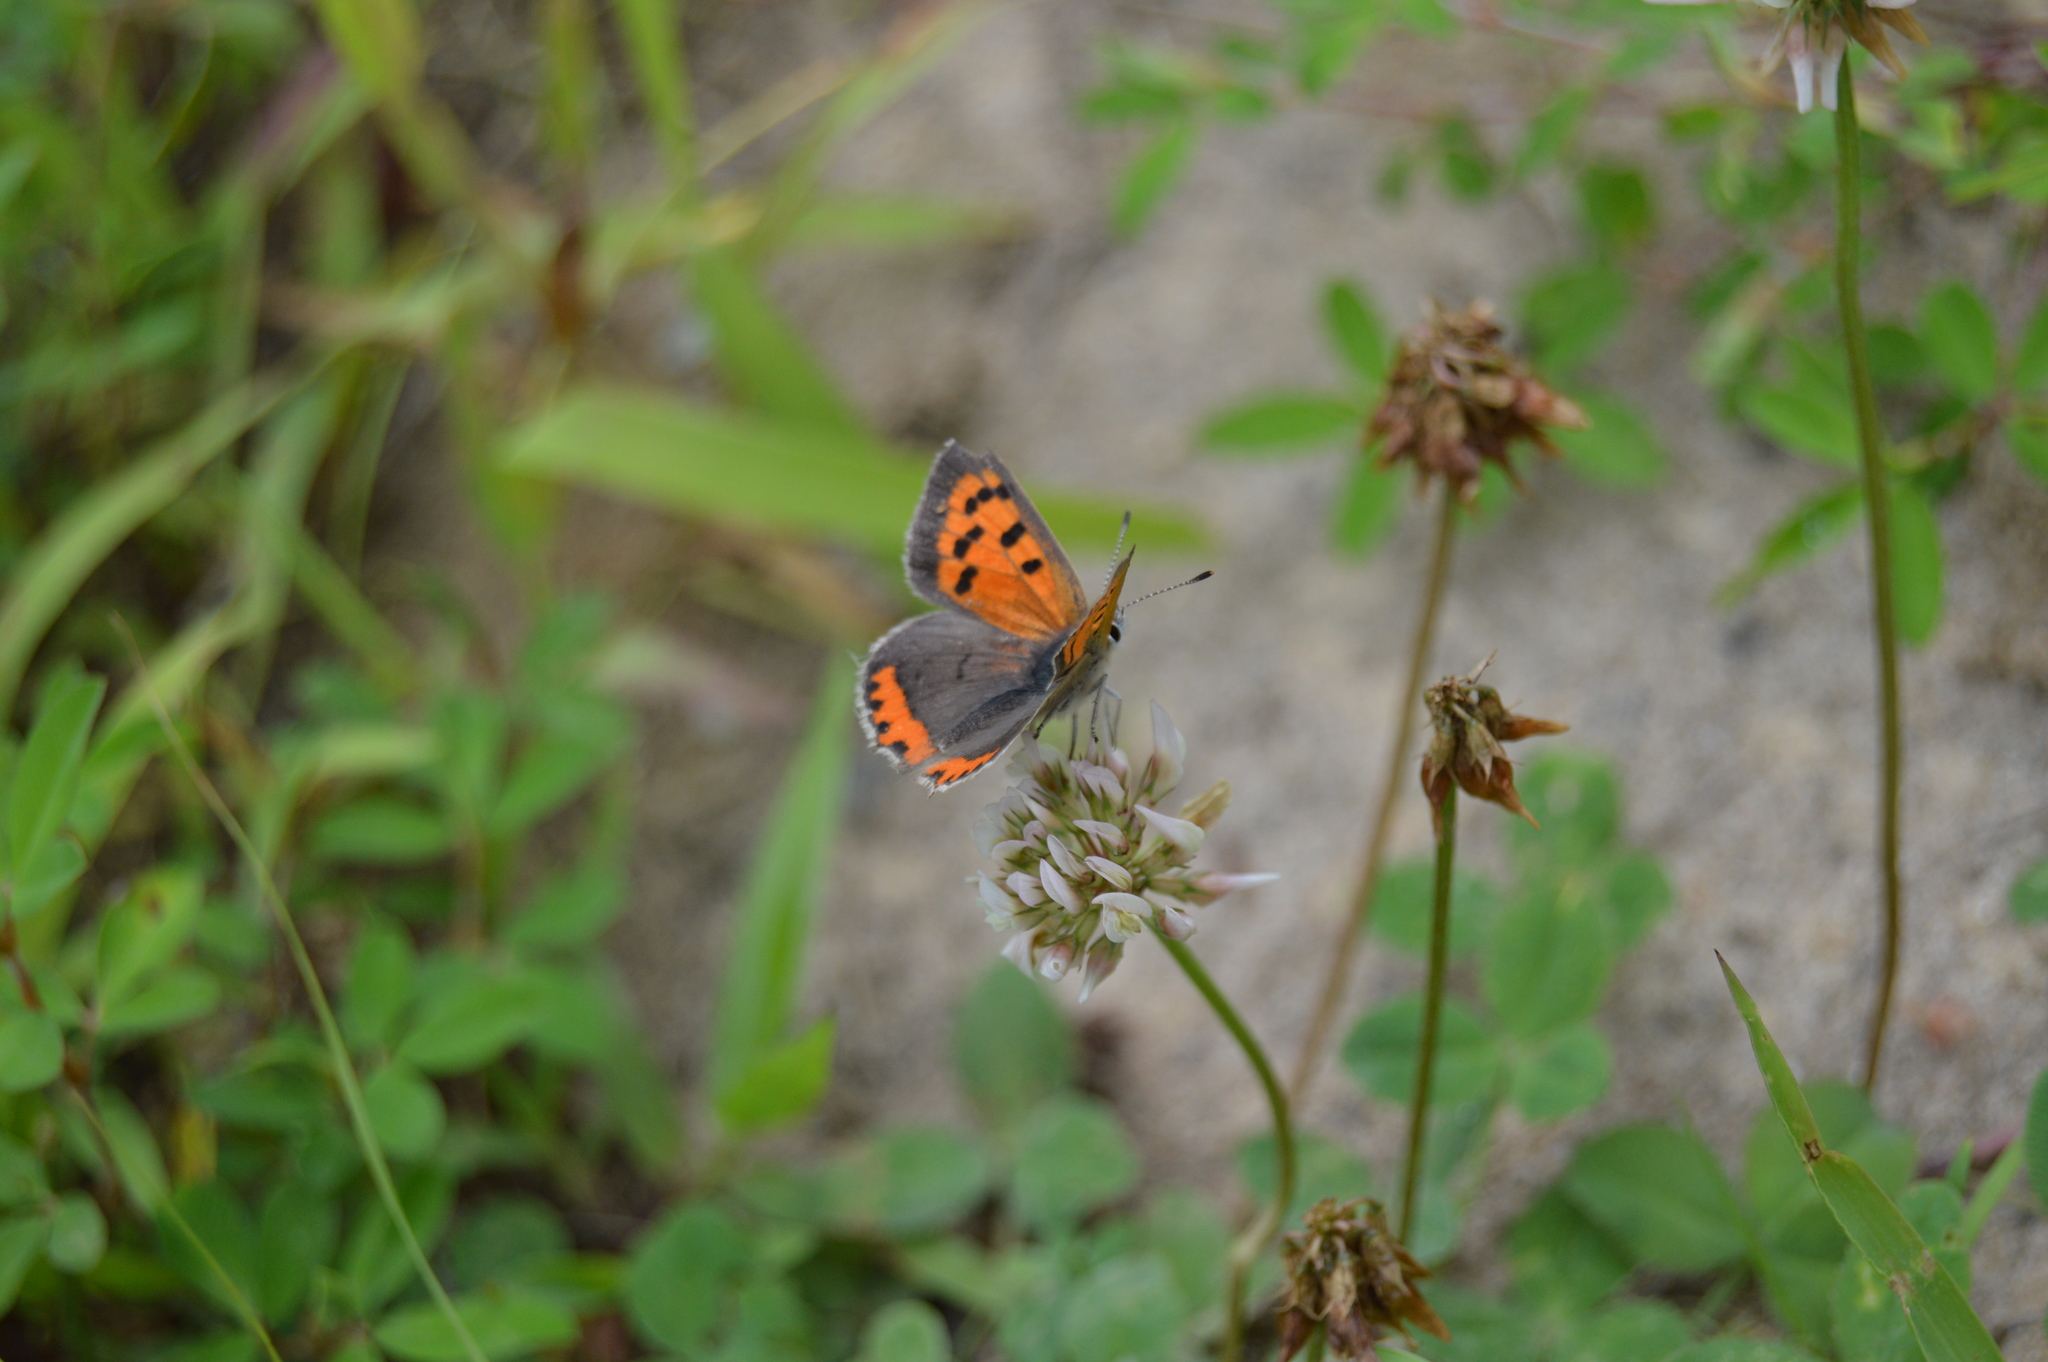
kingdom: Animalia
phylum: Arthropoda
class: Insecta
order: Lepidoptera
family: Lycaenidae
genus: Lycaena
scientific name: Lycaena hypophlaeas
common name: American copper
